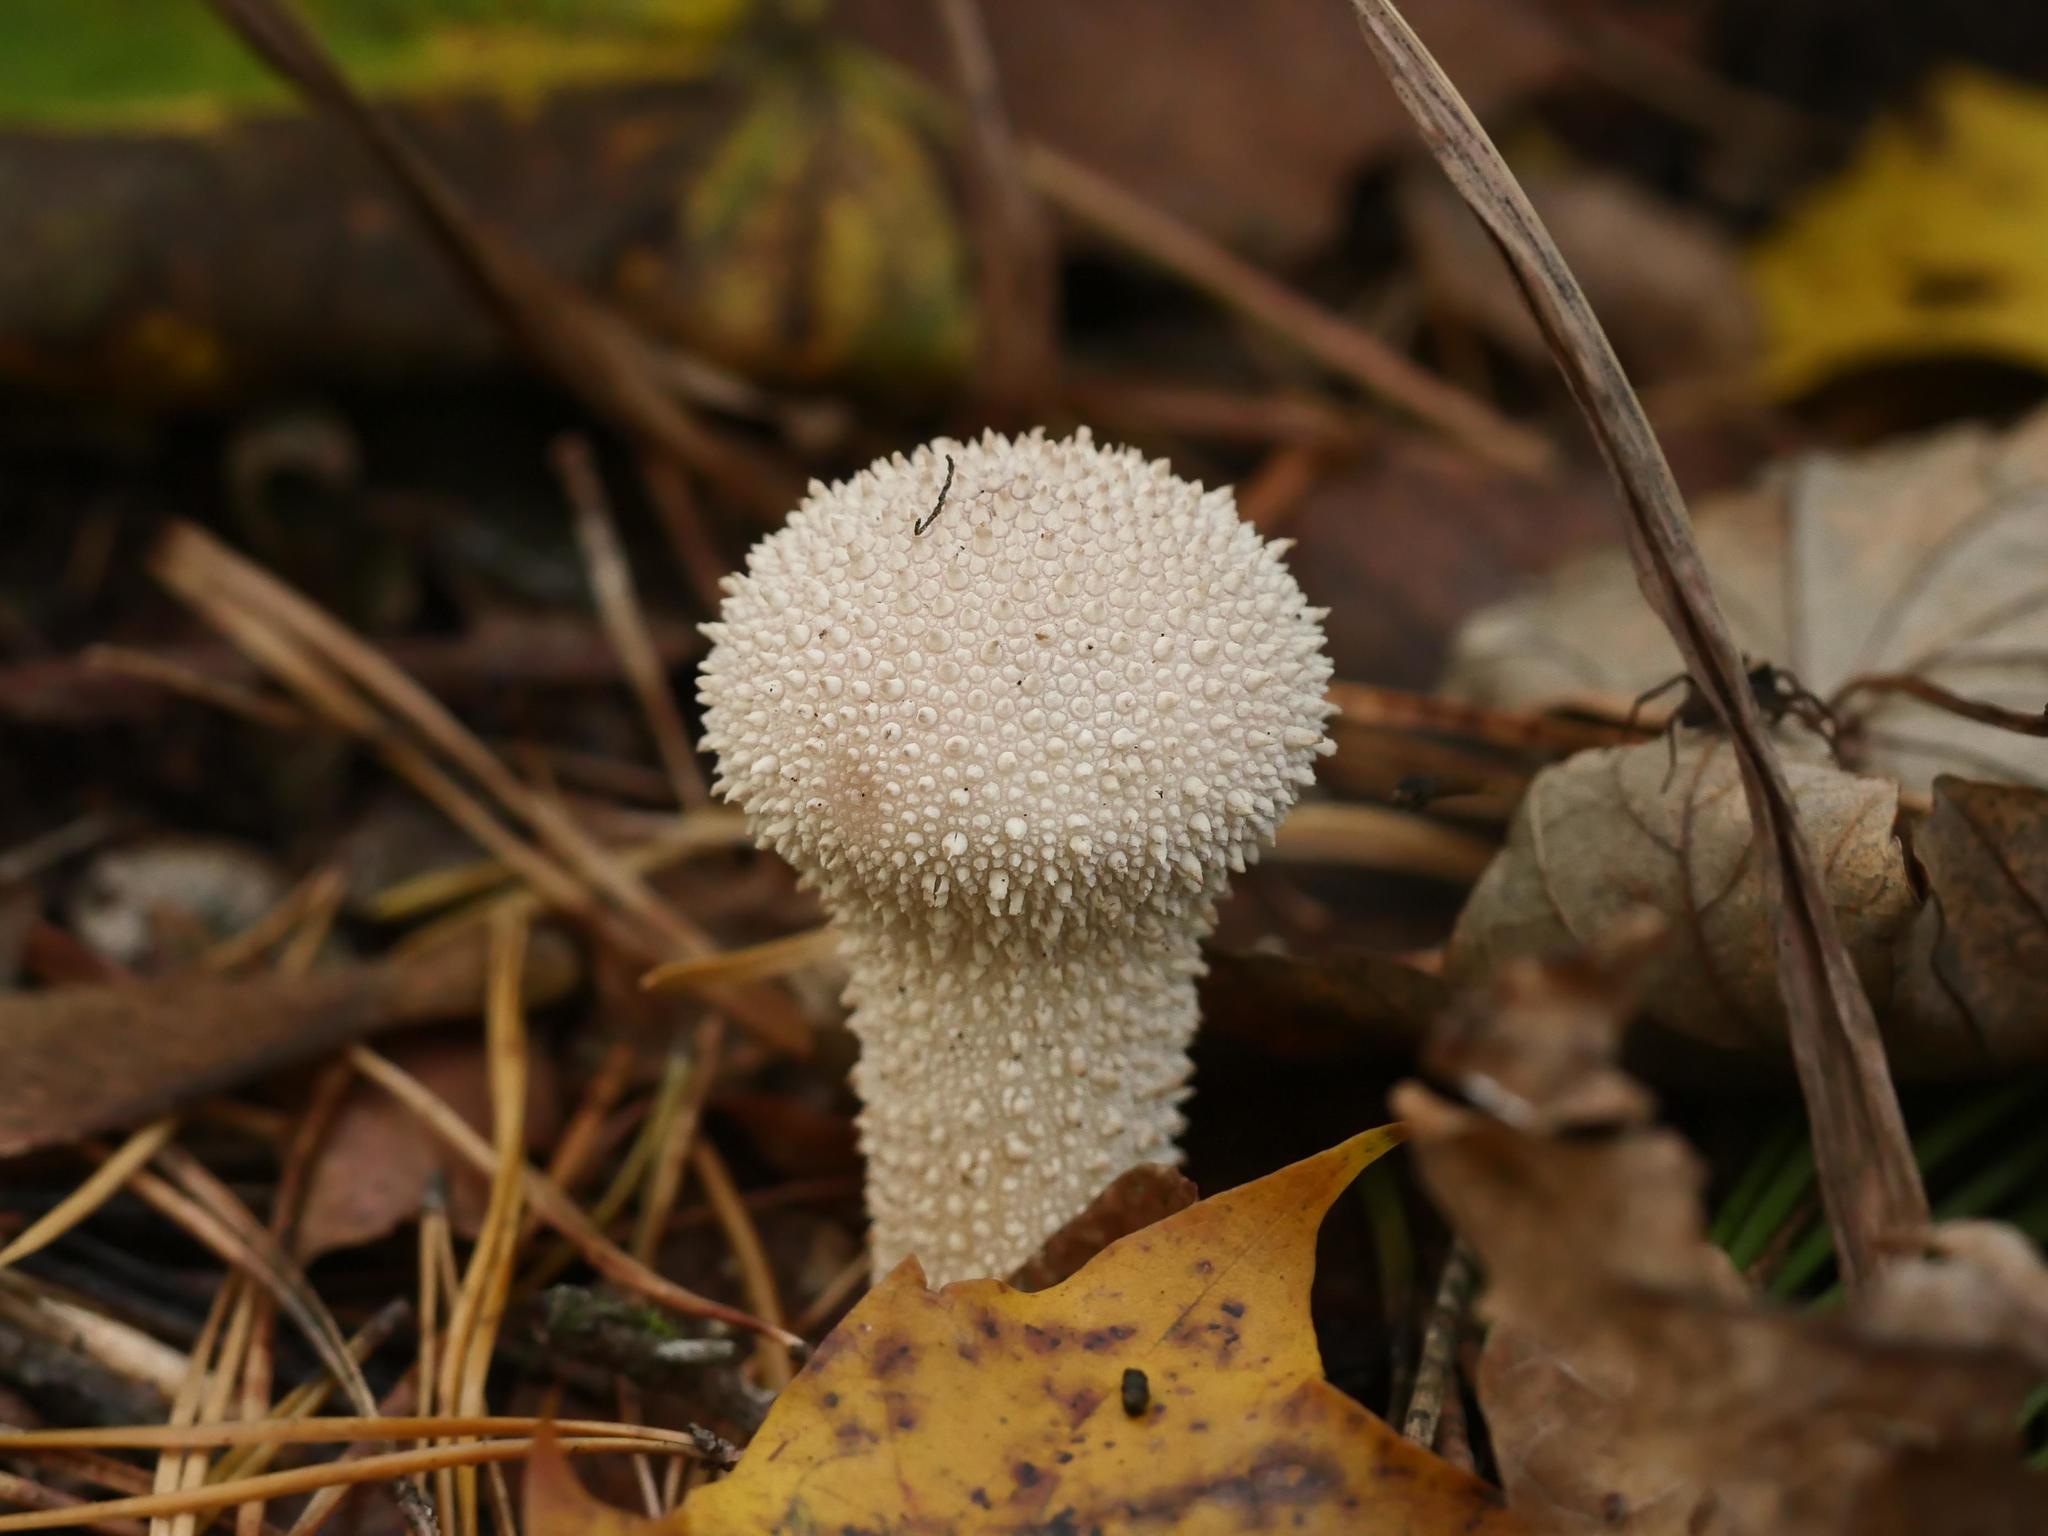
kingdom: Fungi
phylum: Basidiomycota
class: Agaricomycetes
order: Agaricales
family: Lycoperdaceae
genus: Lycoperdon
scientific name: Lycoperdon perlatum
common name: Common puffball
